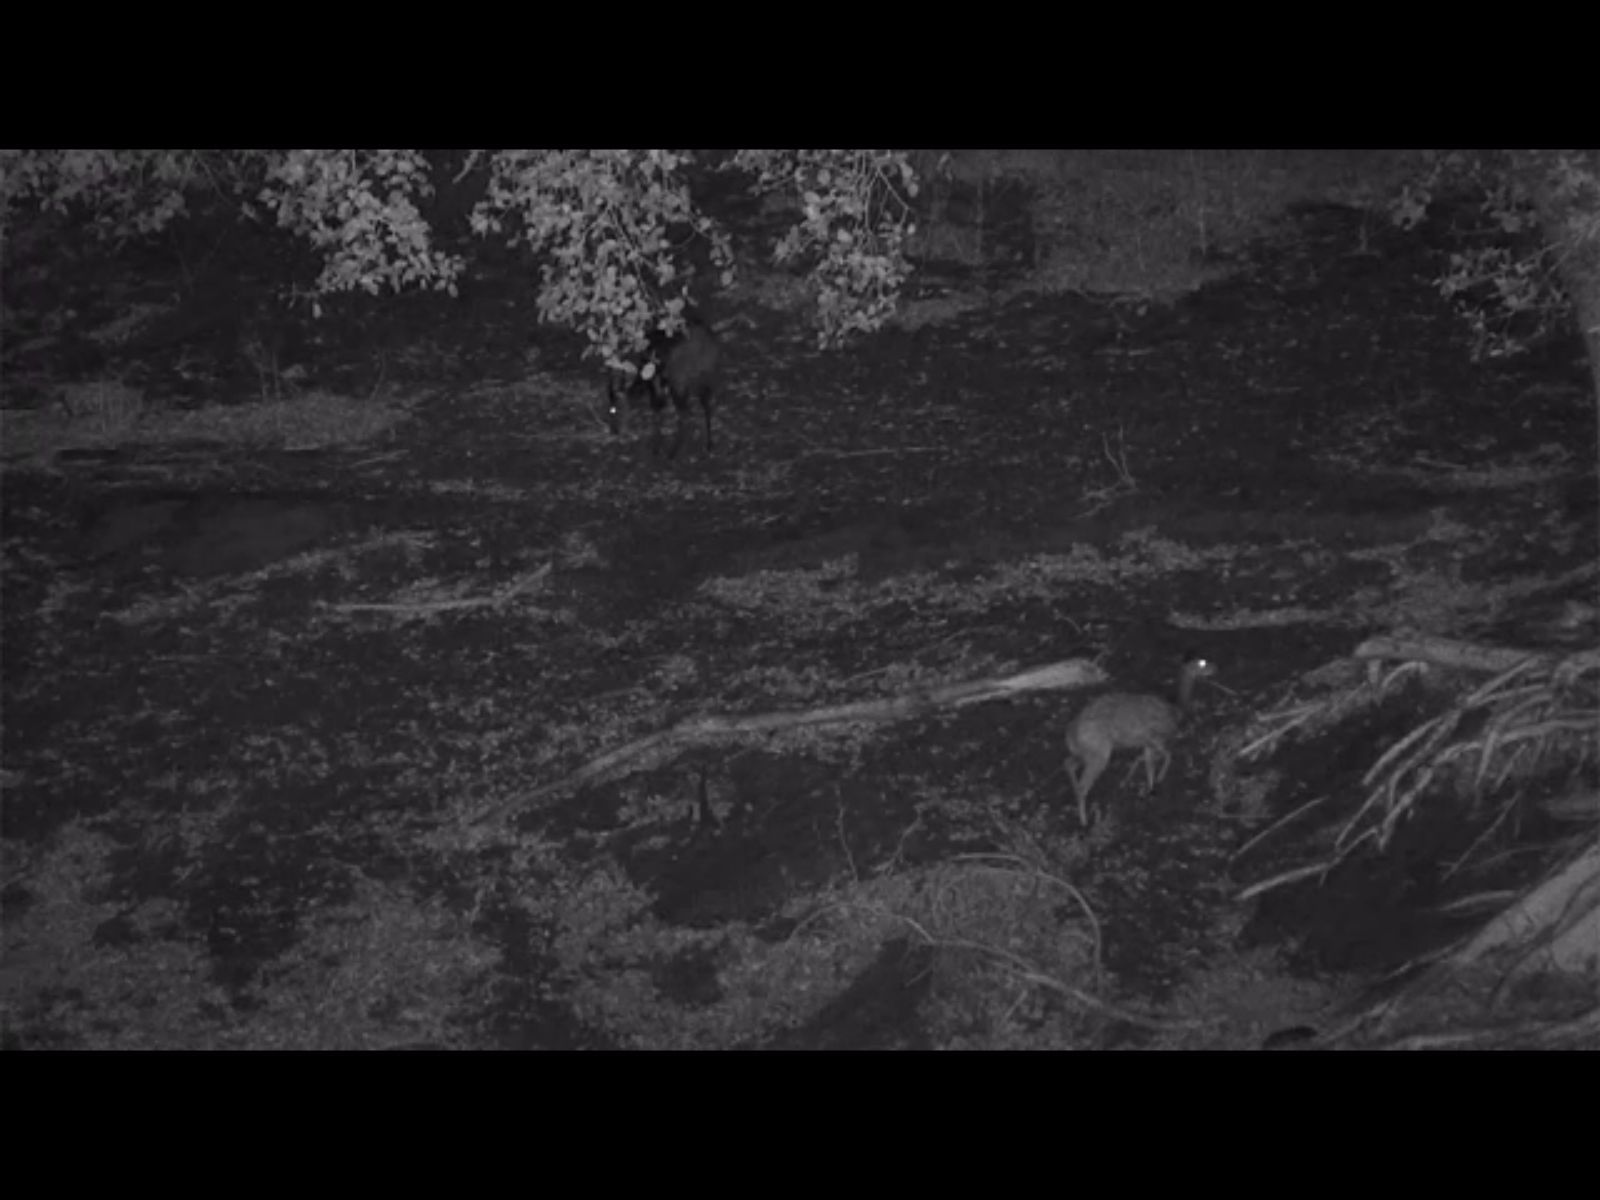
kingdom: Animalia
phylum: Chordata
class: Mammalia
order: Artiodactyla
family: Bovidae
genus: Tragelaphus
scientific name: Tragelaphus scriptus
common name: Bushbuck
